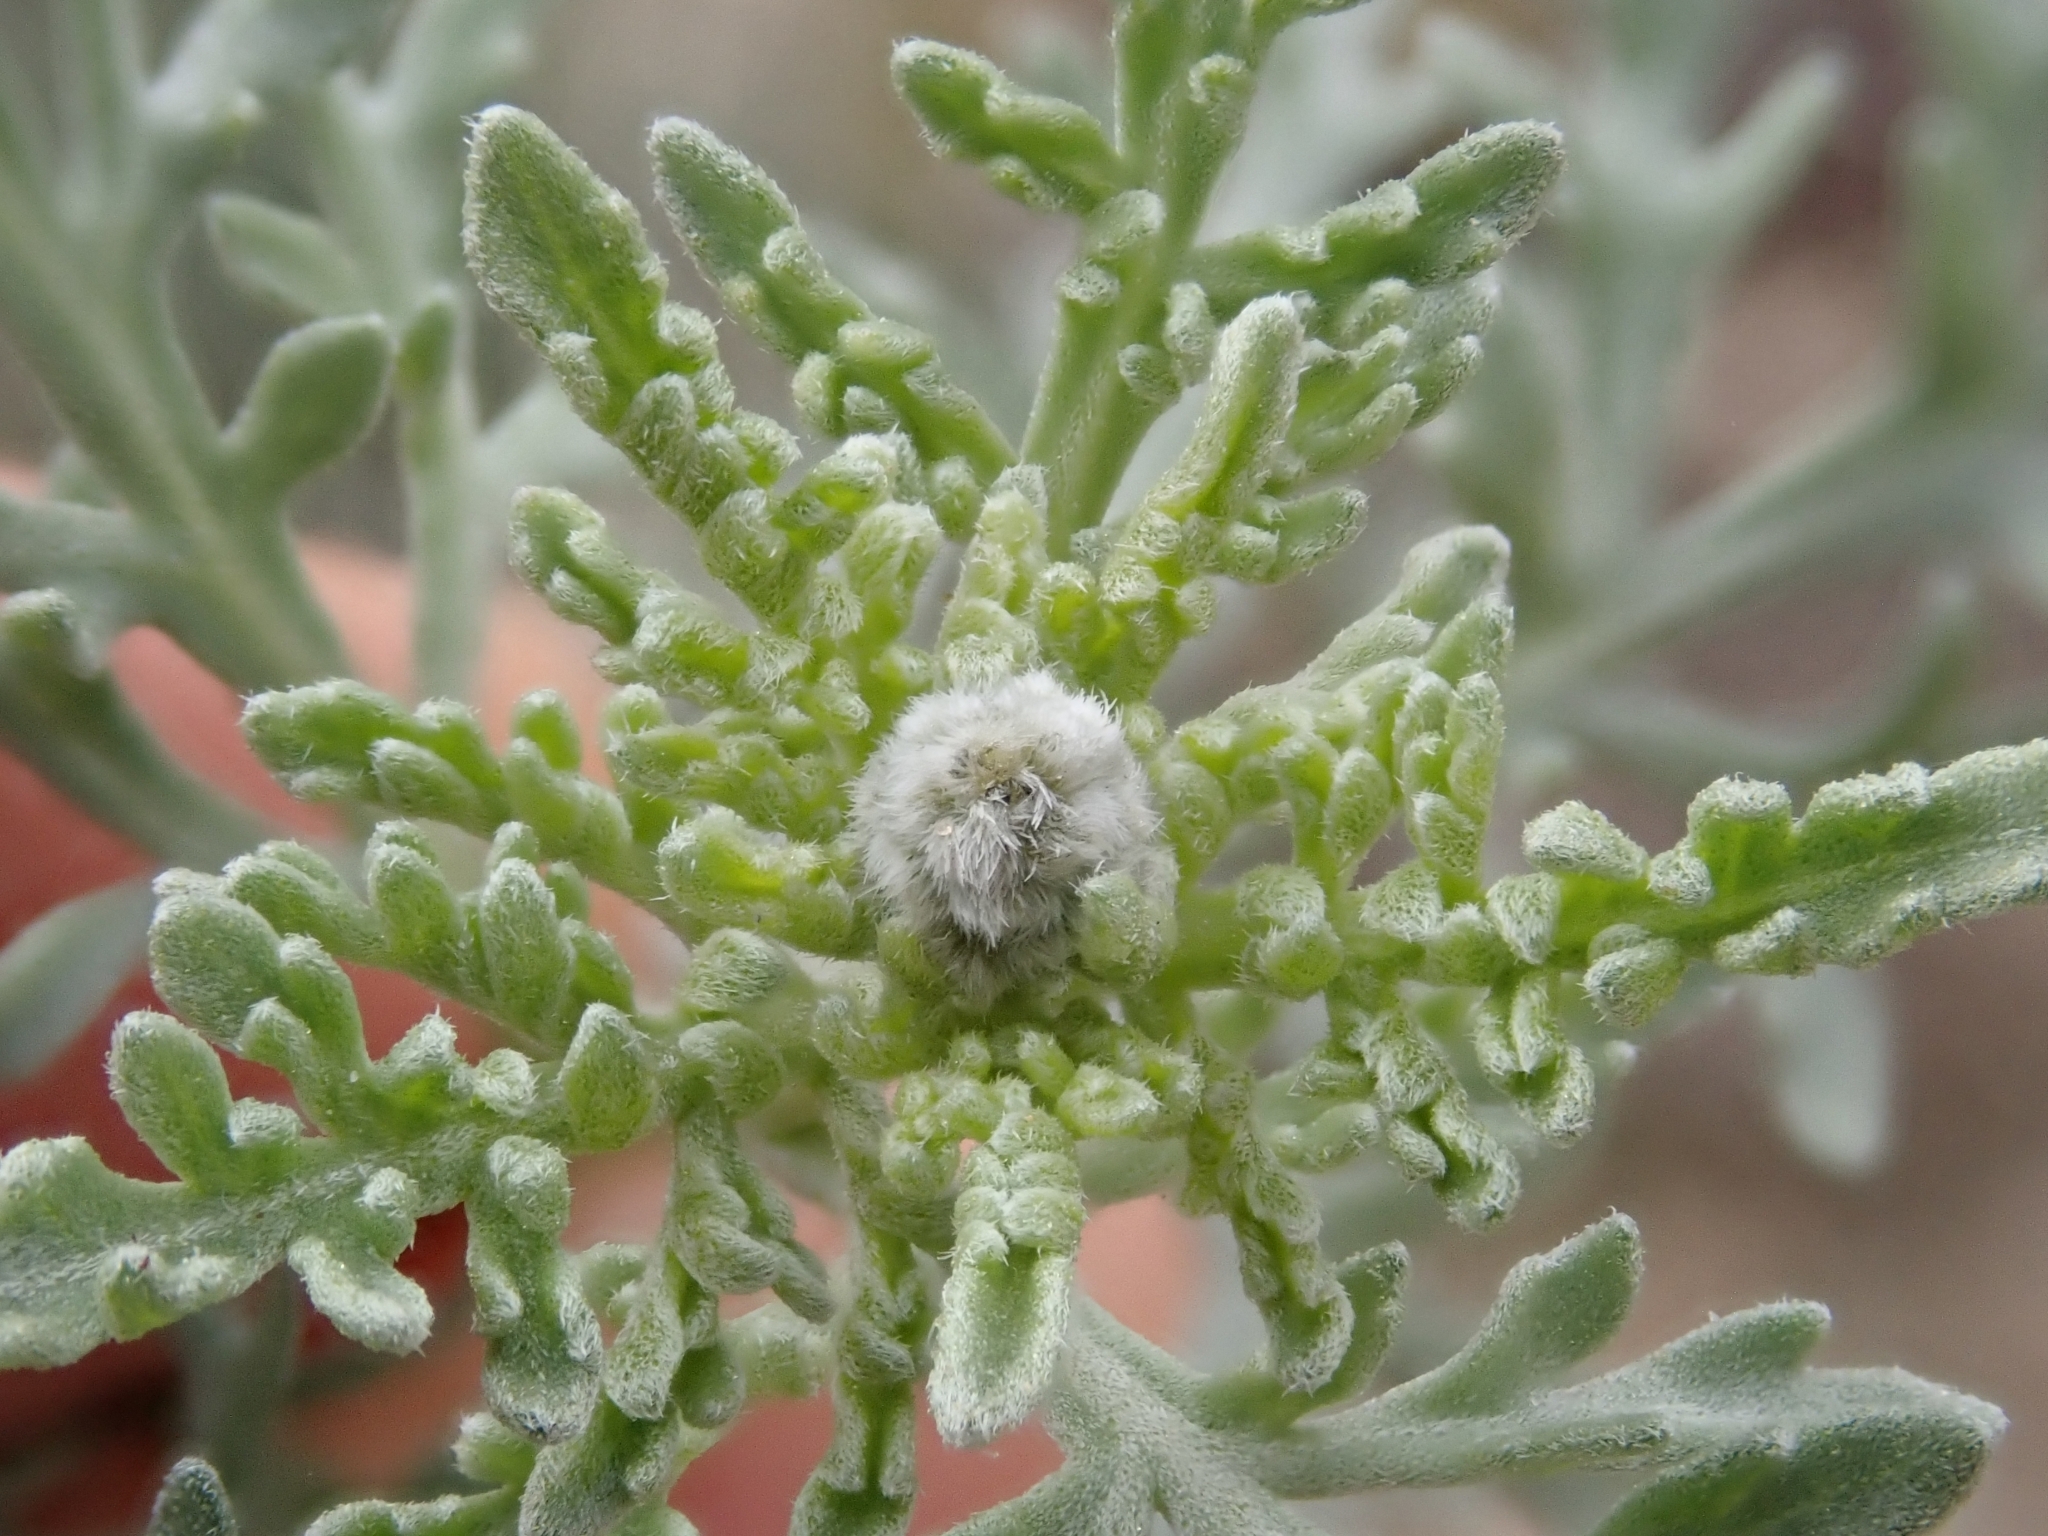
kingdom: Plantae
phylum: Tracheophyta
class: Magnoliopsida
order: Asterales
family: Asteraceae
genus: Ambrosia
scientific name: Ambrosia dumosa
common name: Bur-sage
